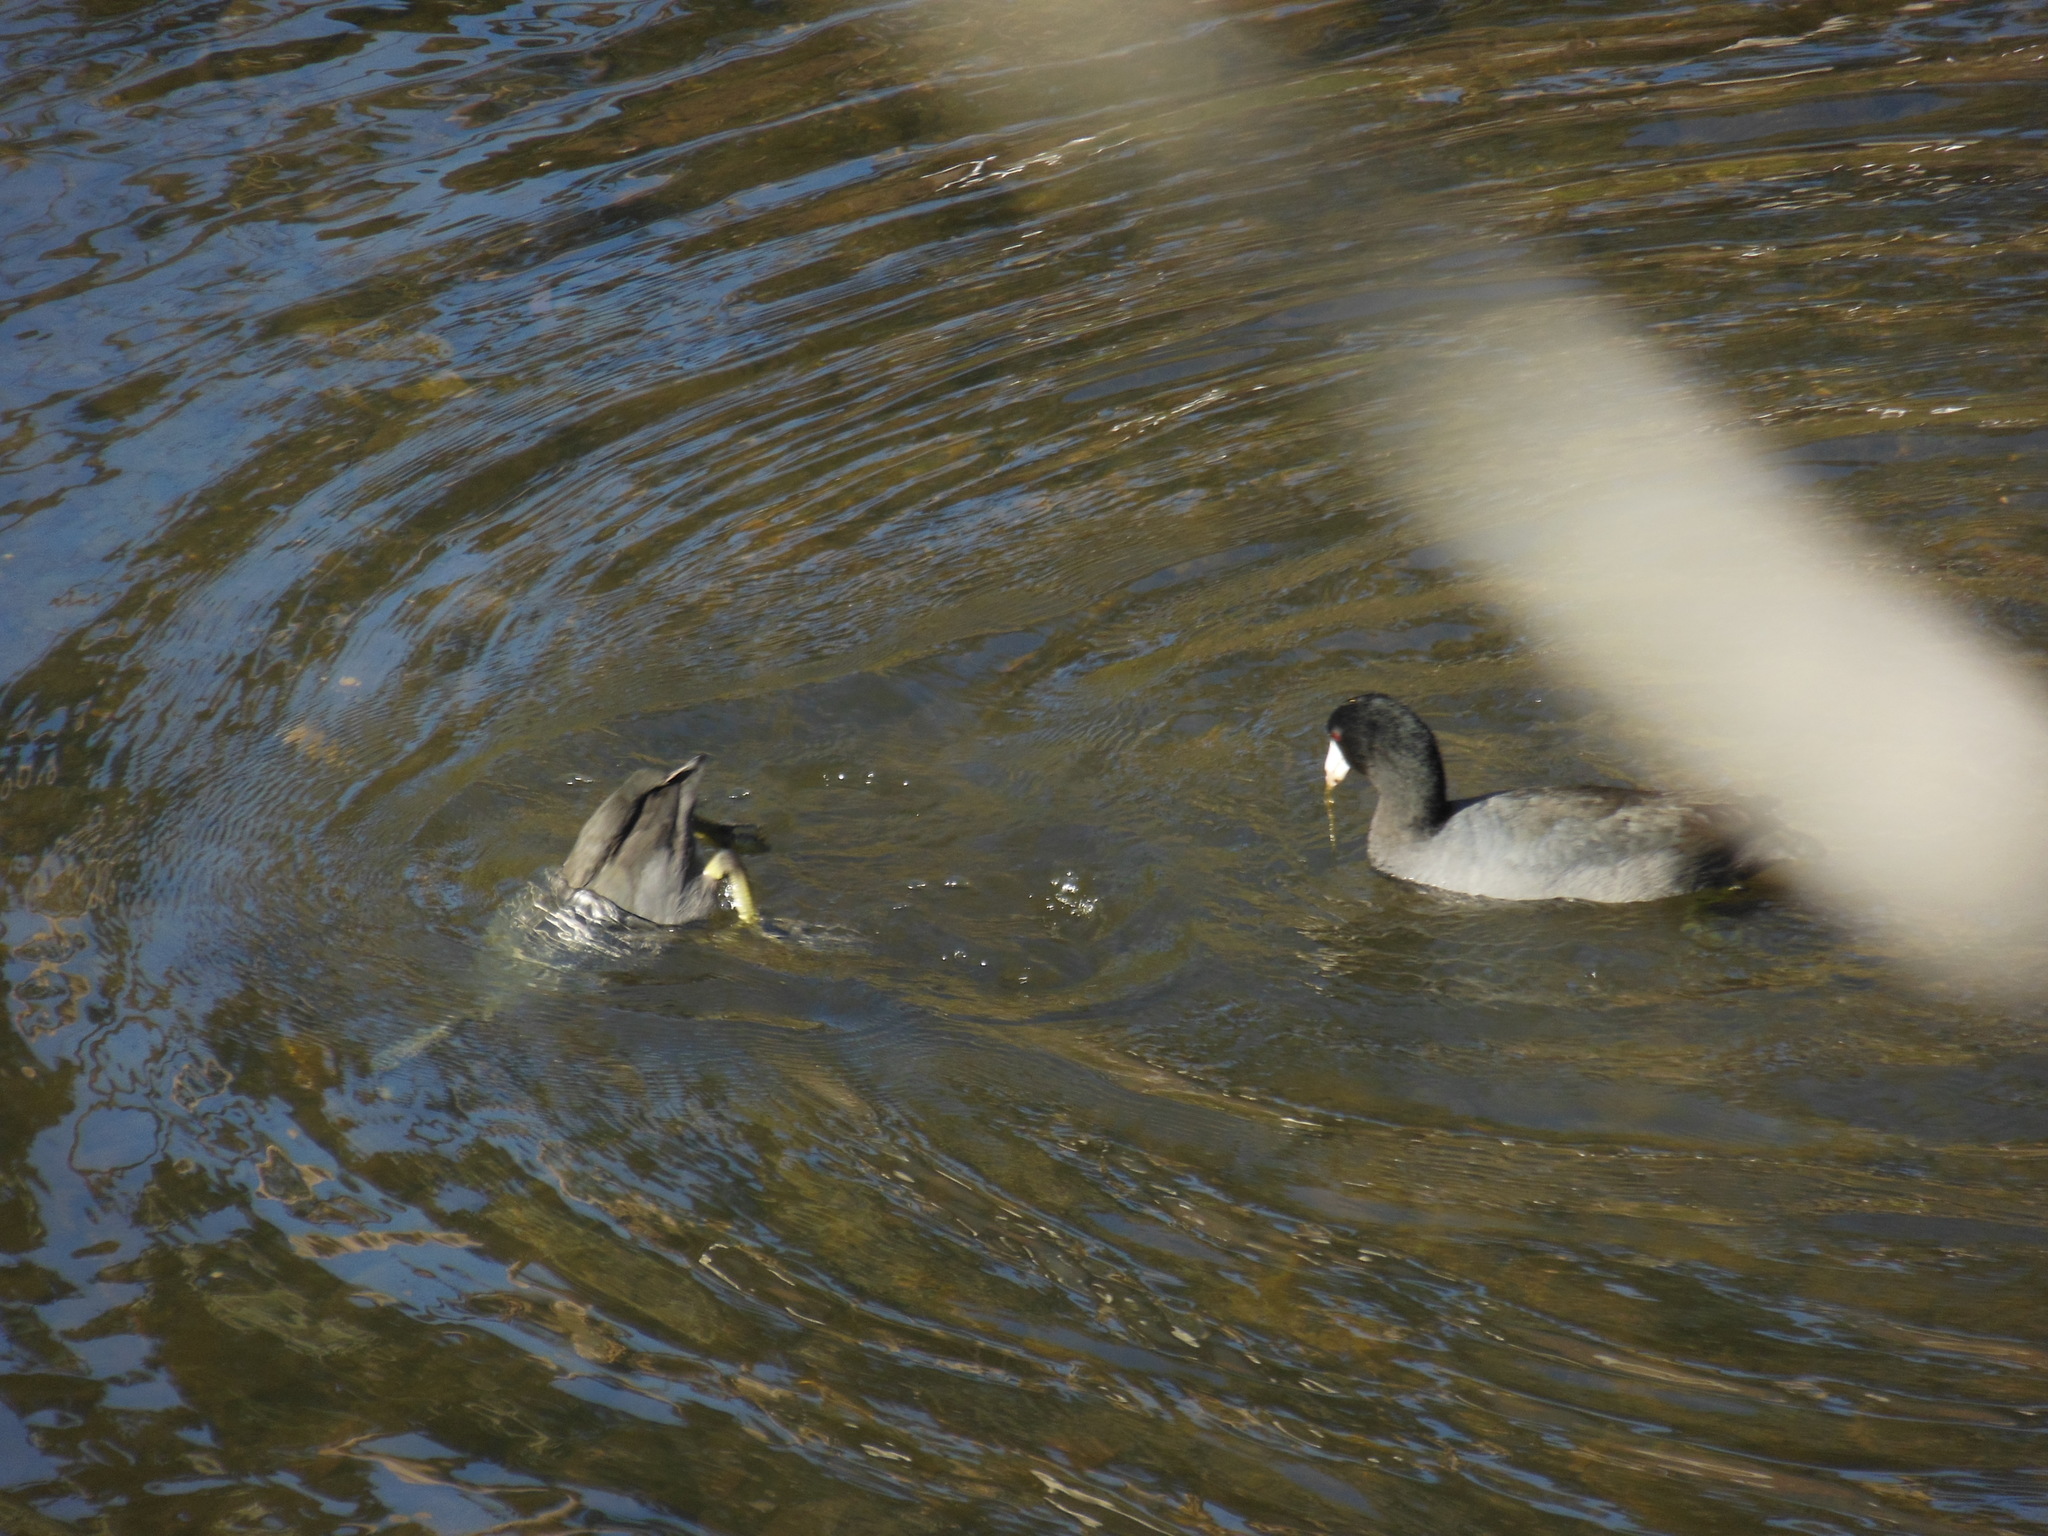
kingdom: Animalia
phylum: Chordata
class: Aves
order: Gruiformes
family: Rallidae
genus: Fulica
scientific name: Fulica americana
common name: American coot
